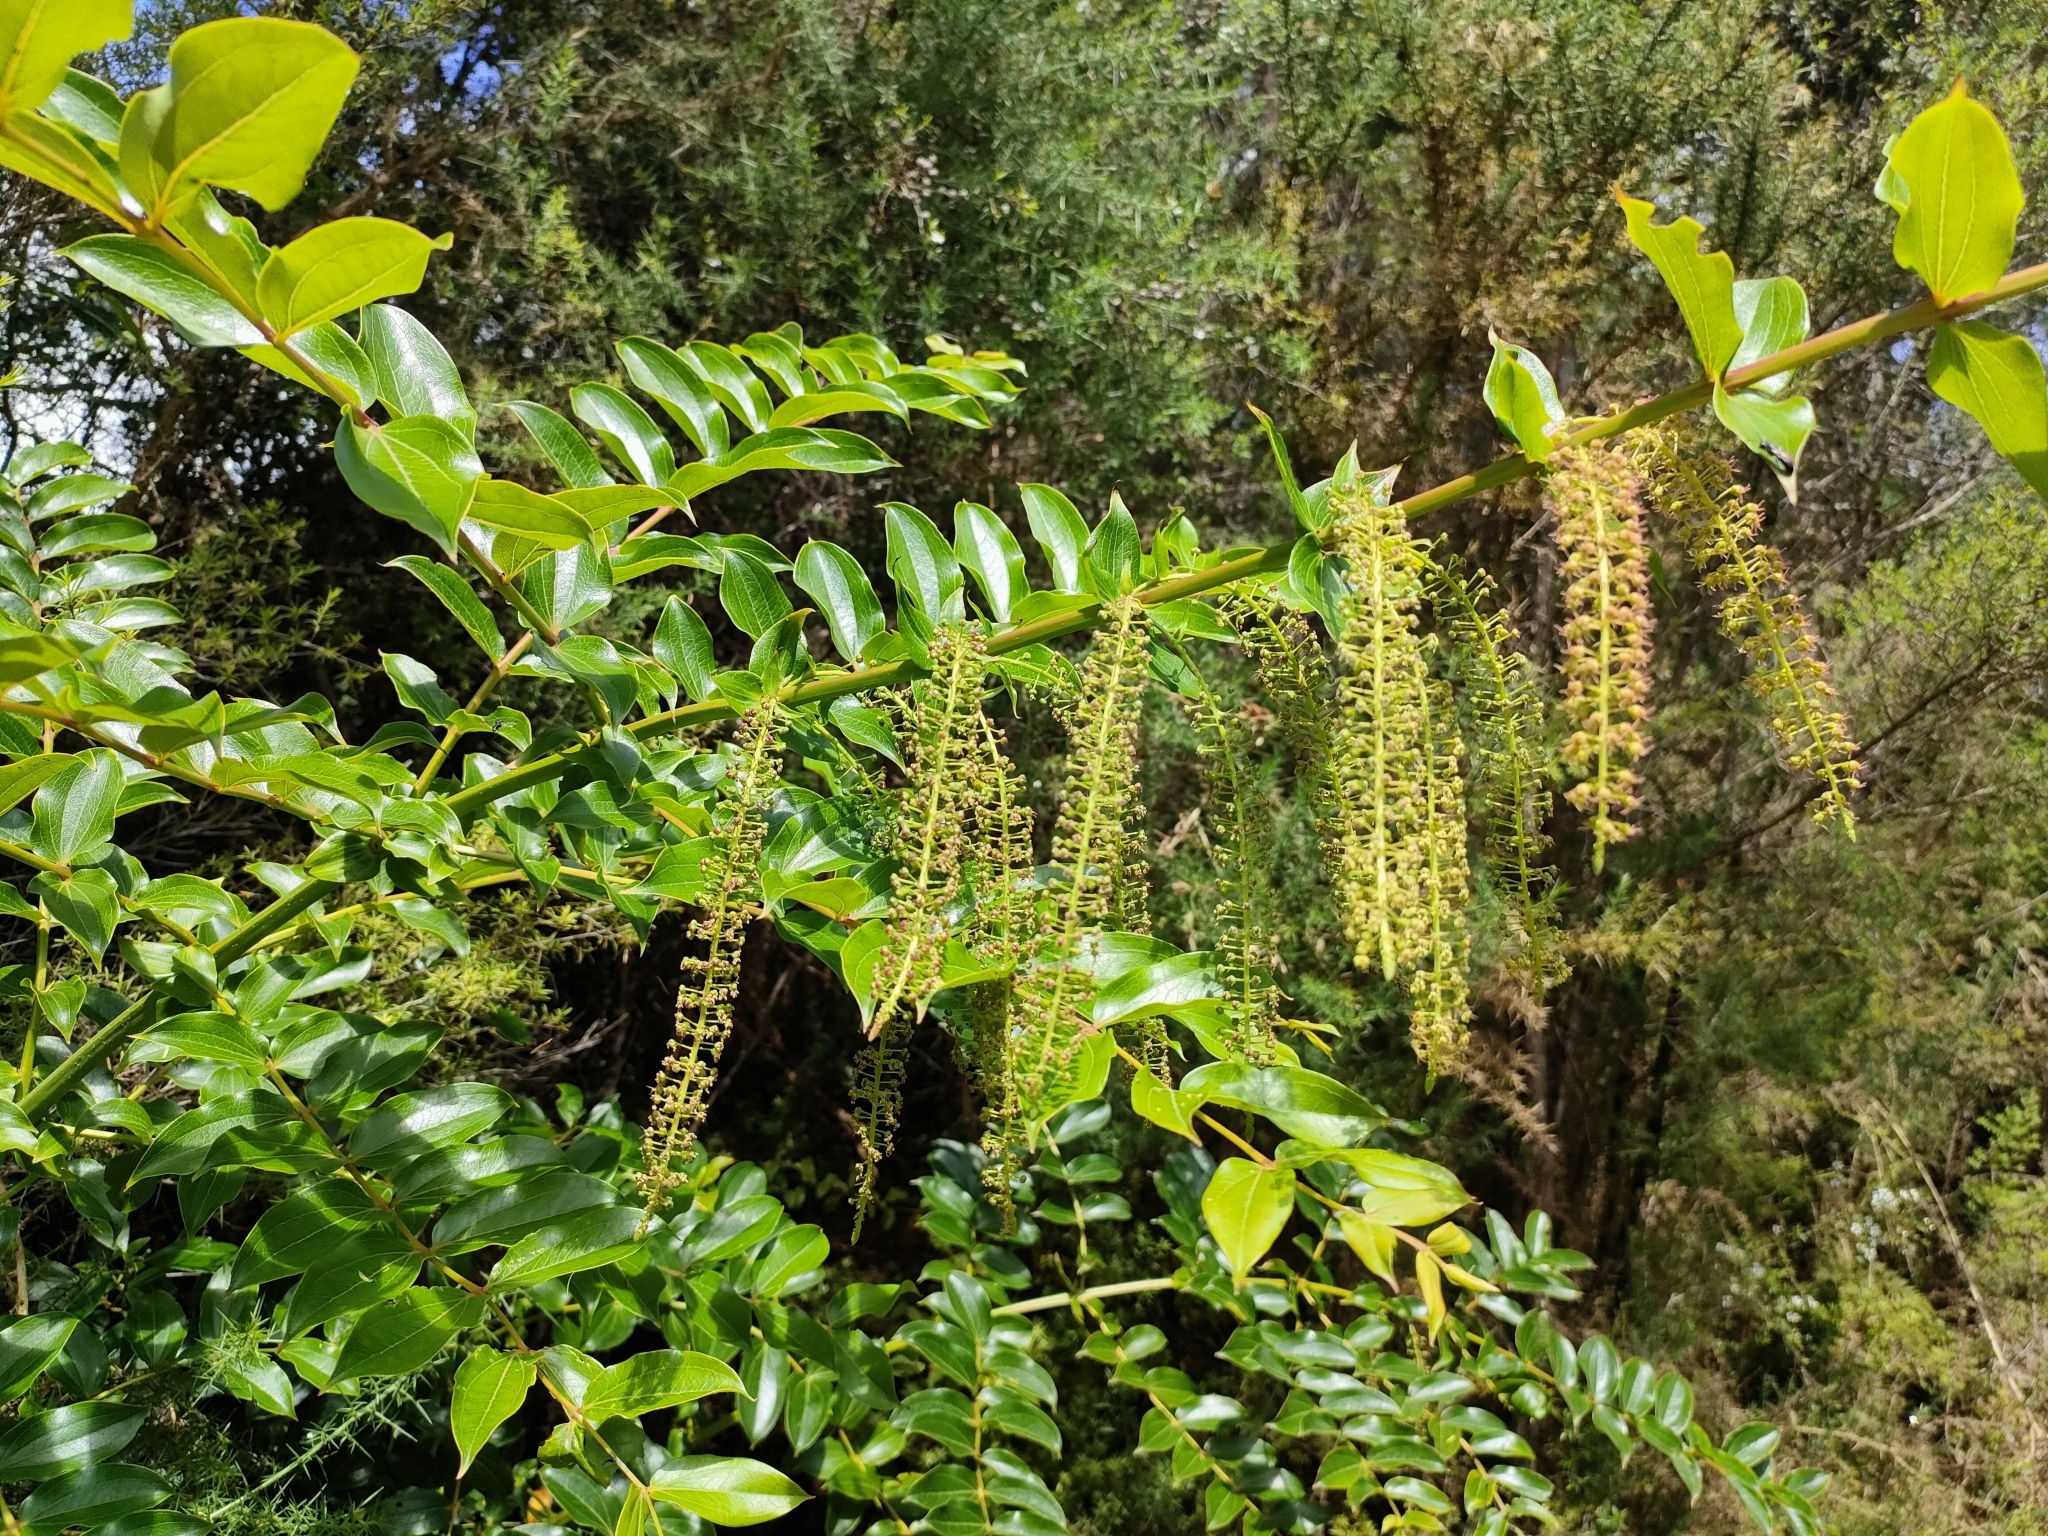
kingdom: Plantae
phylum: Tracheophyta
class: Magnoliopsida
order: Cucurbitales
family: Coriariaceae
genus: Coriaria
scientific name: Coriaria arborea
